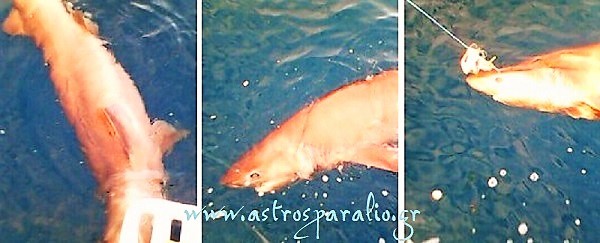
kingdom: Animalia
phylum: Chordata
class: Elasmobranchii
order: Hexanchiformes
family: Hexanchidae
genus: Hexanchus
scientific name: Hexanchus griseus
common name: Bluntnose sixgill shark
